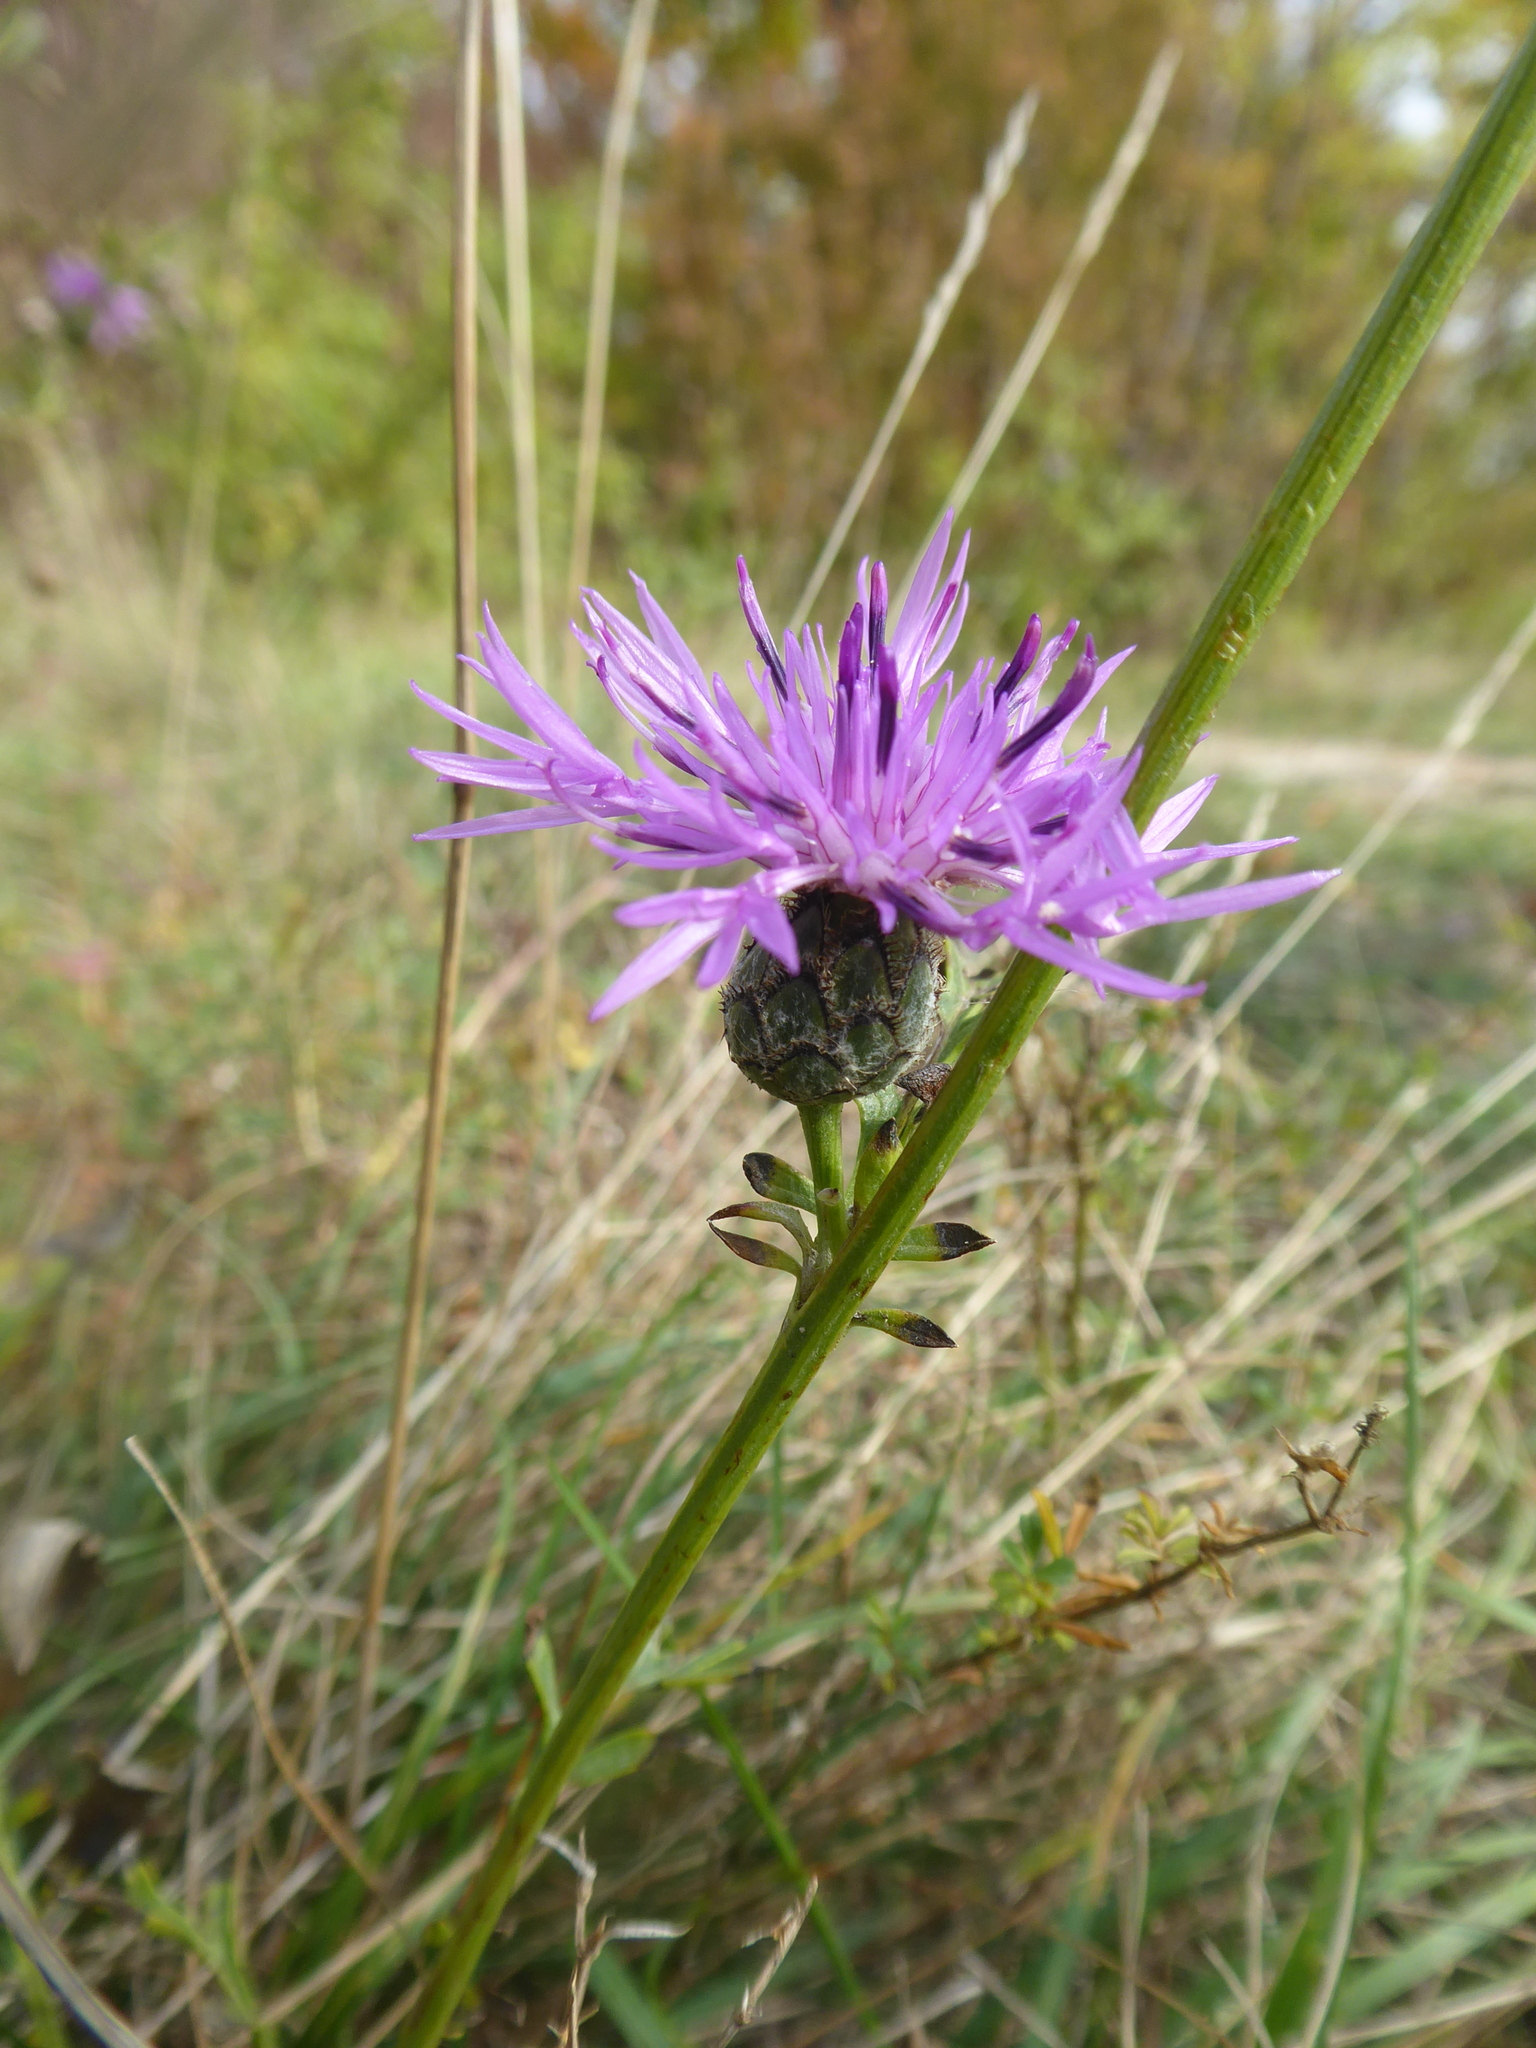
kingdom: Plantae
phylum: Tracheophyta
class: Magnoliopsida
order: Asterales
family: Asteraceae
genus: Centaurea
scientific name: Centaurea scabiosa
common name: Greater knapweed
